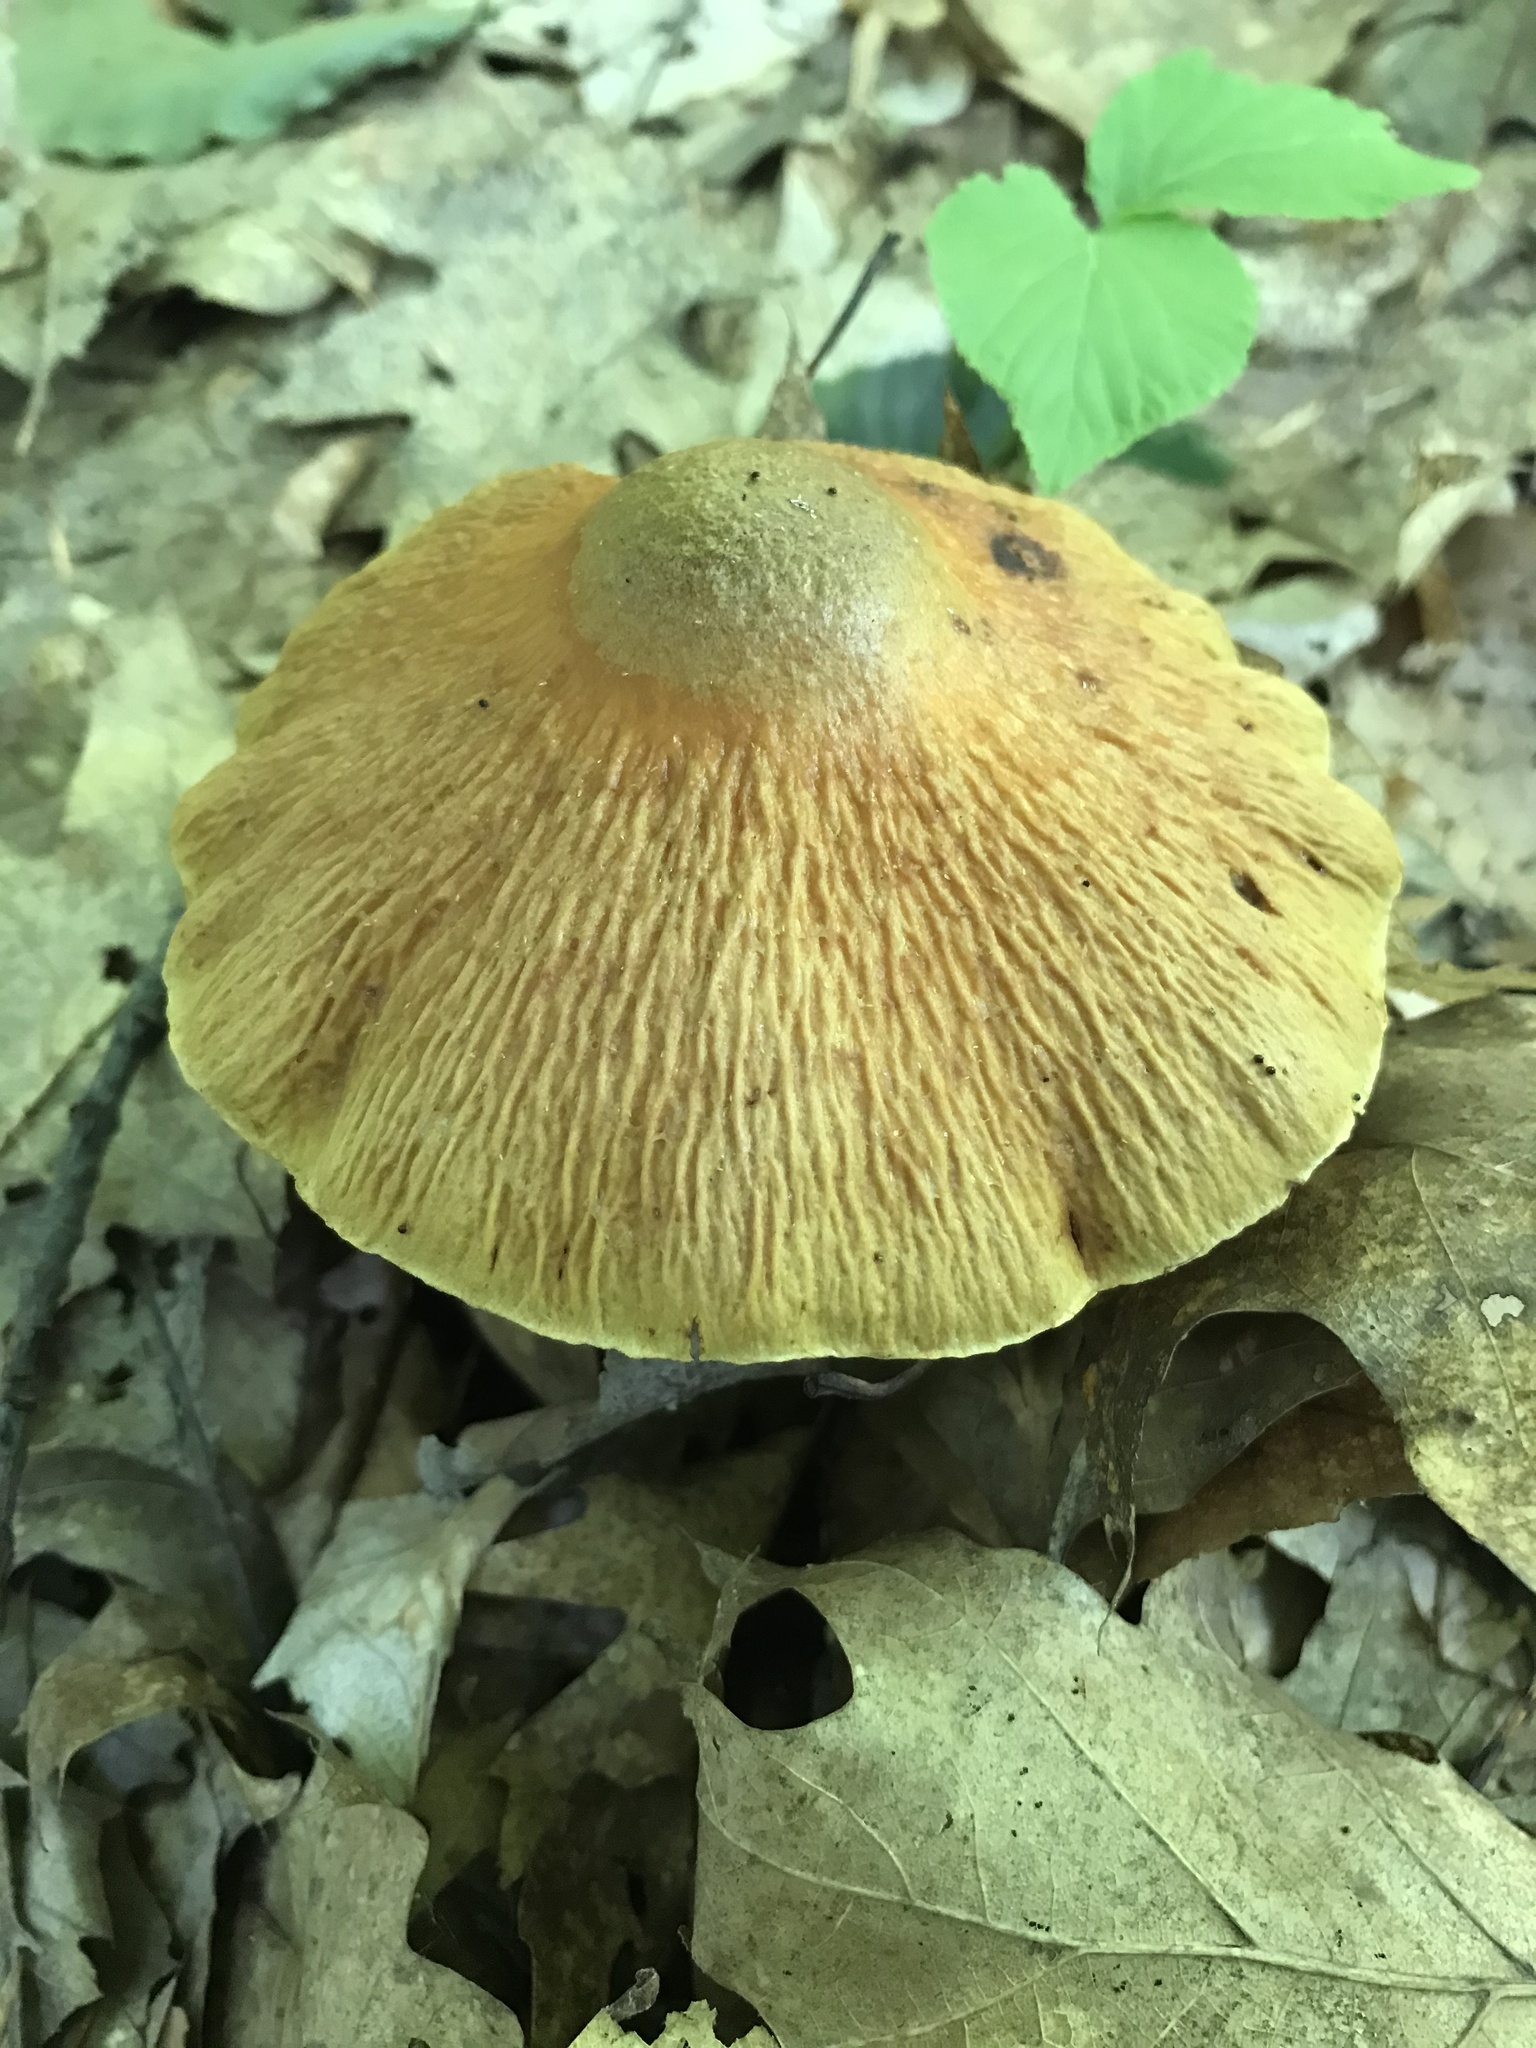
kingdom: Fungi
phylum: Basidiomycota
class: Agaricomycetes
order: Agaricales
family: Cortinariaceae
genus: Cortinarius
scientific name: Cortinarius corrugatus
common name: Wrinkled cortinarius
